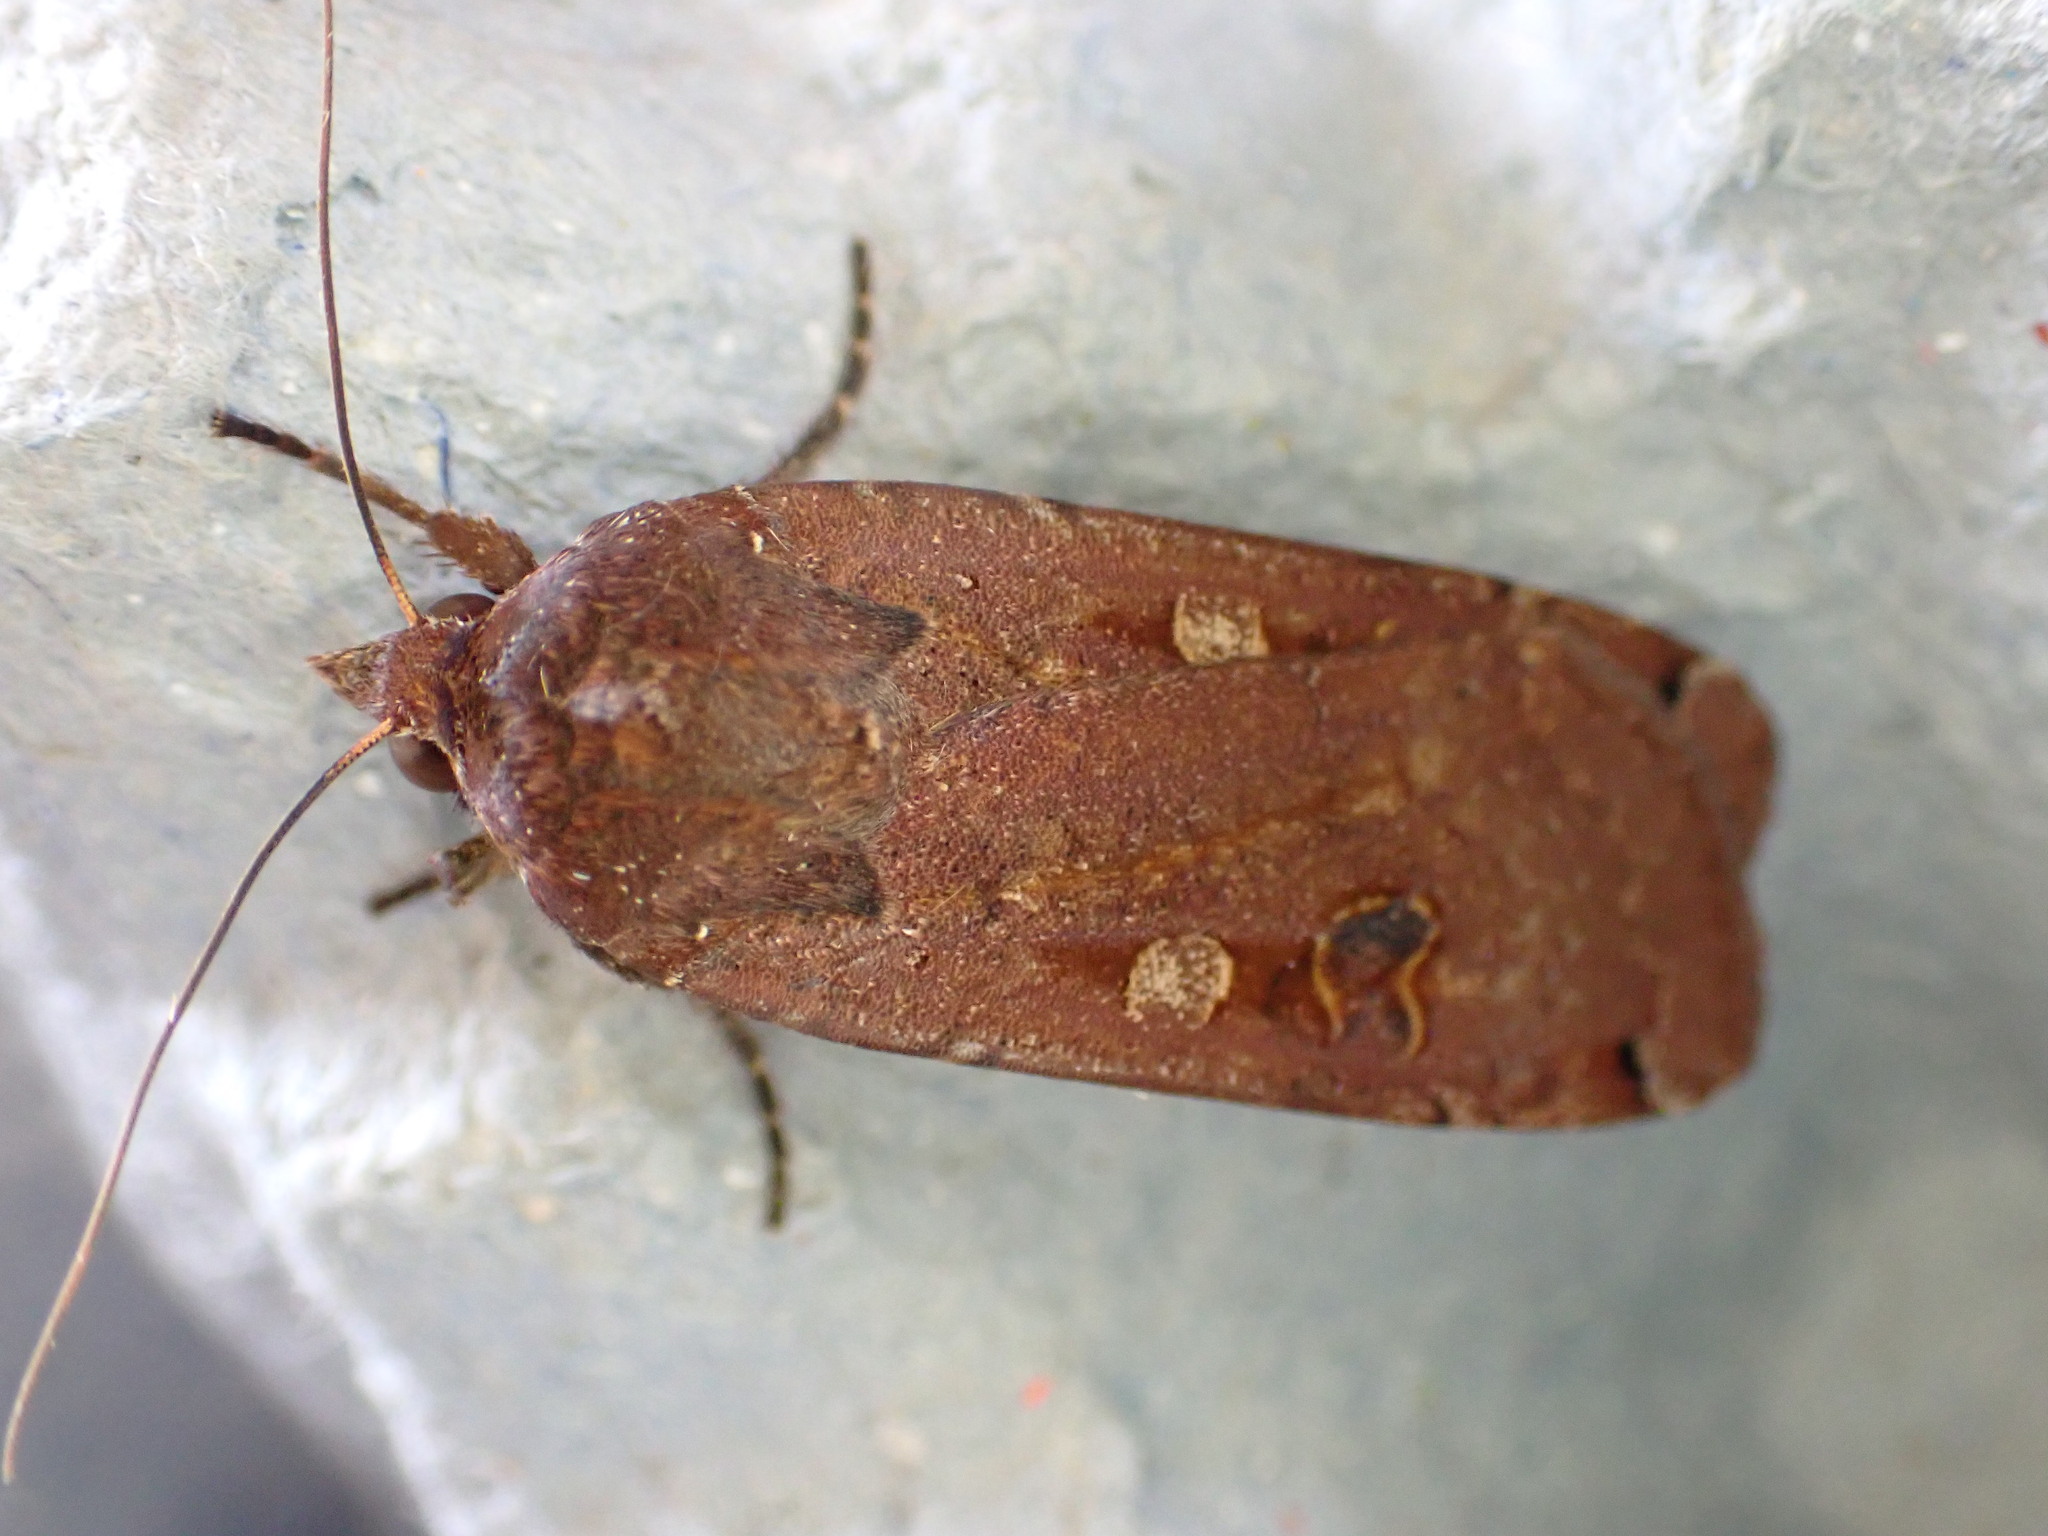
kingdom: Animalia
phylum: Arthropoda
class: Insecta
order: Lepidoptera
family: Noctuidae
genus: Noctua
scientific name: Noctua pronuba
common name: Large yellow underwing
